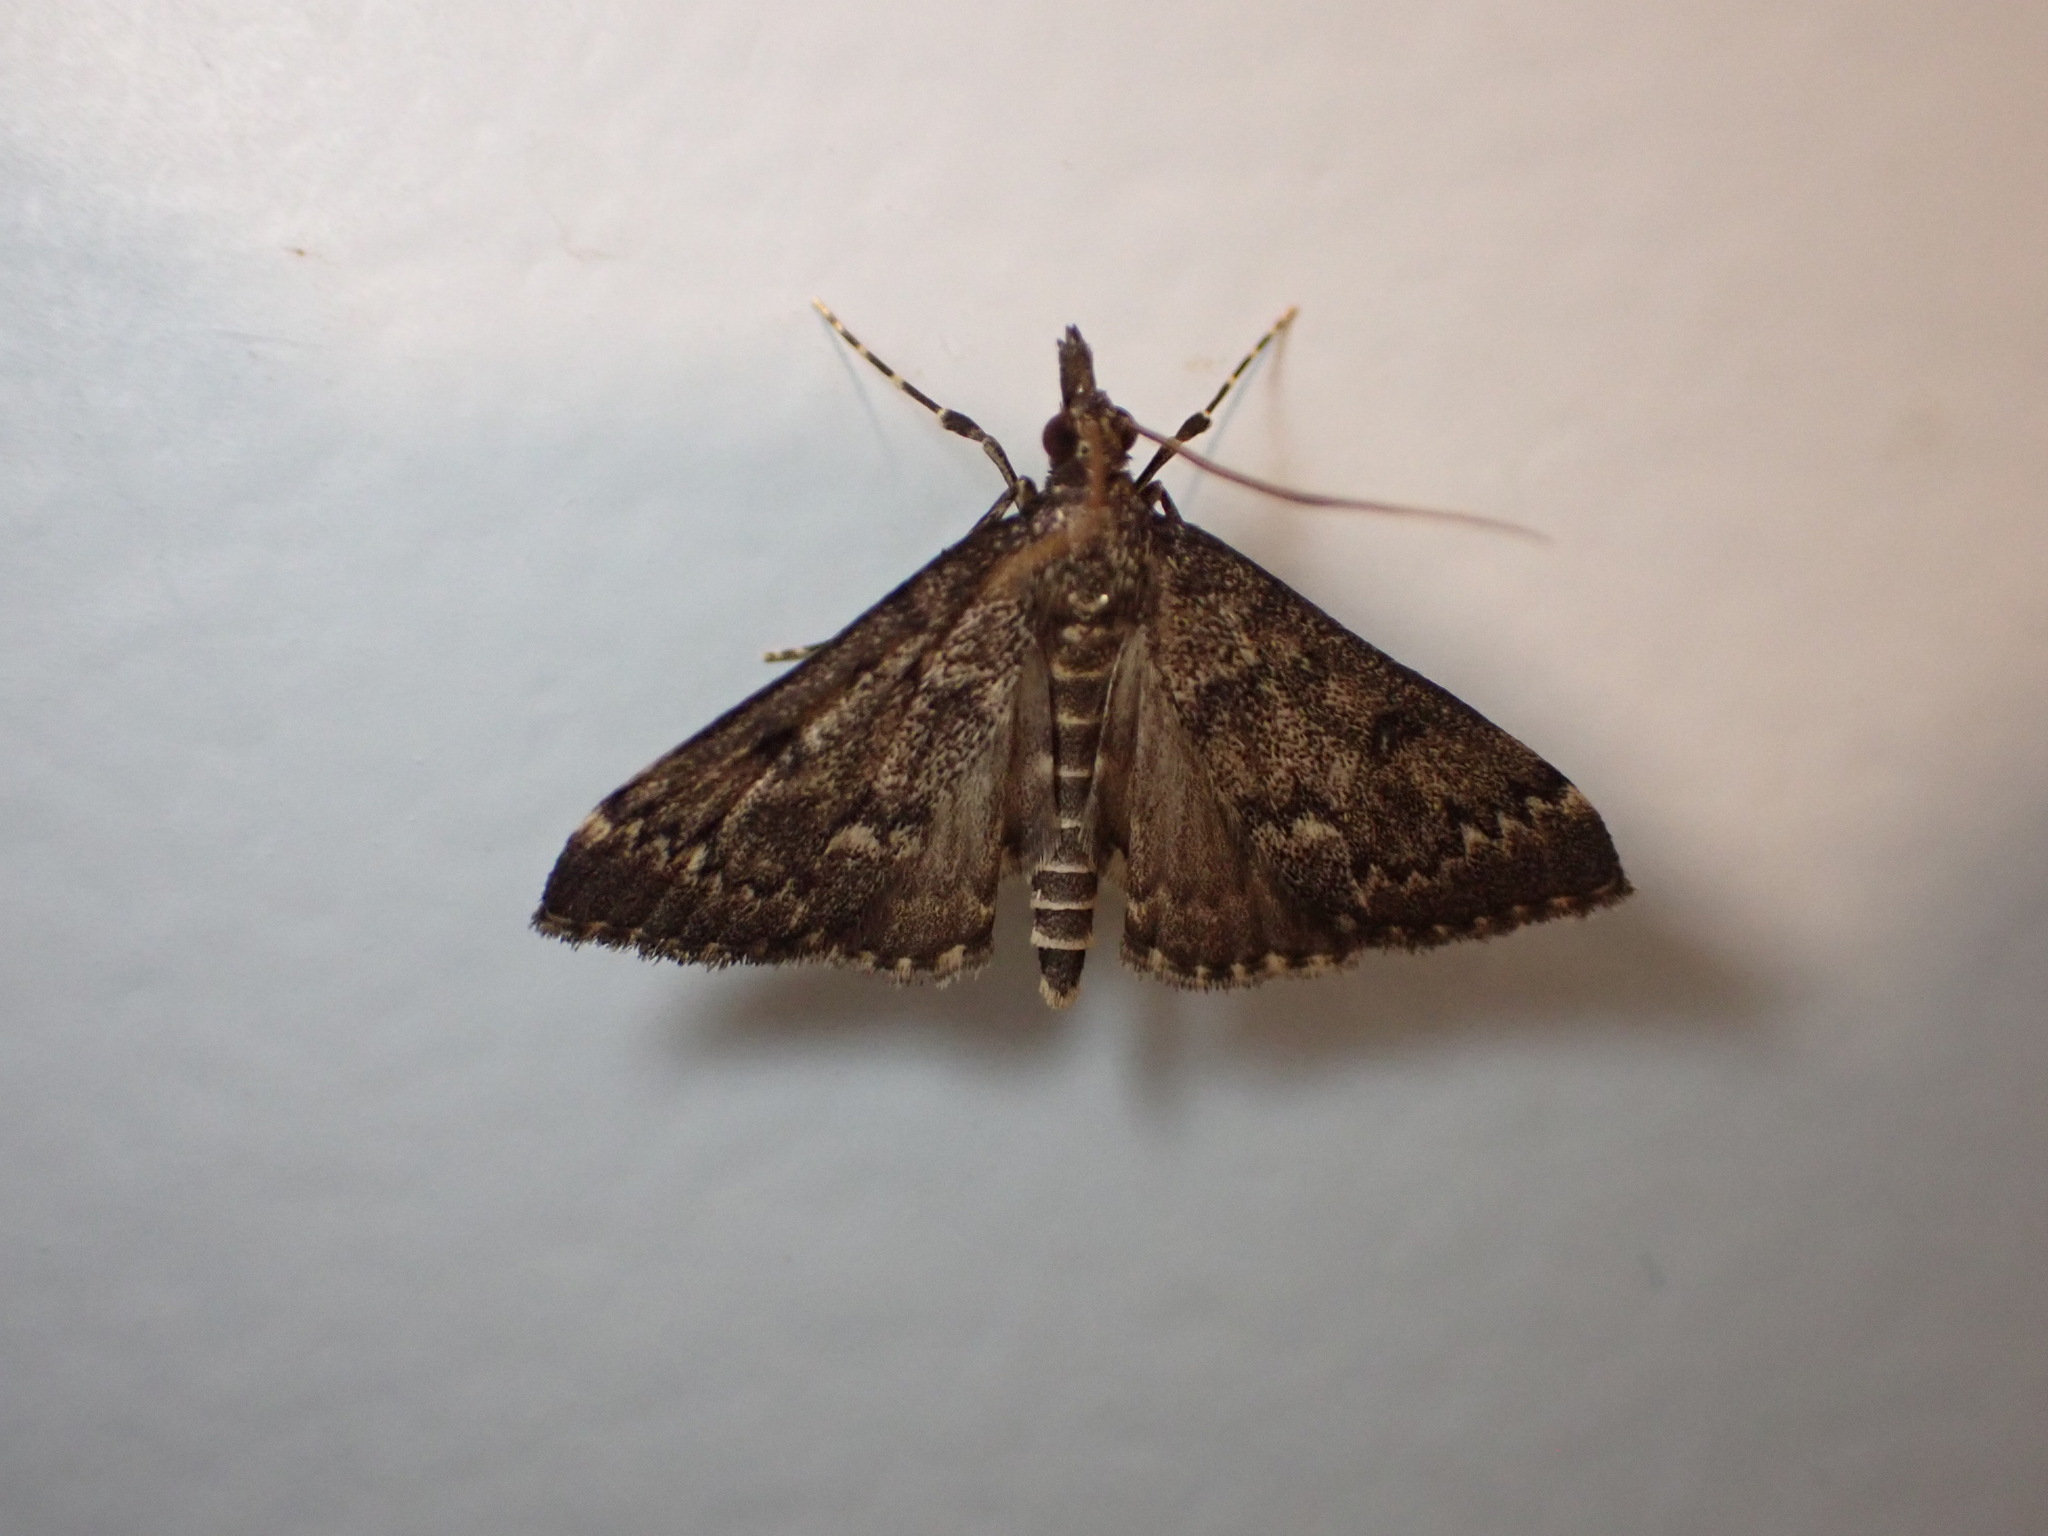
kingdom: Animalia
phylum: Arthropoda
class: Insecta
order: Lepidoptera
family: Crambidae
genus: Loxostege
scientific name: Loxostege Proternia philocapna
